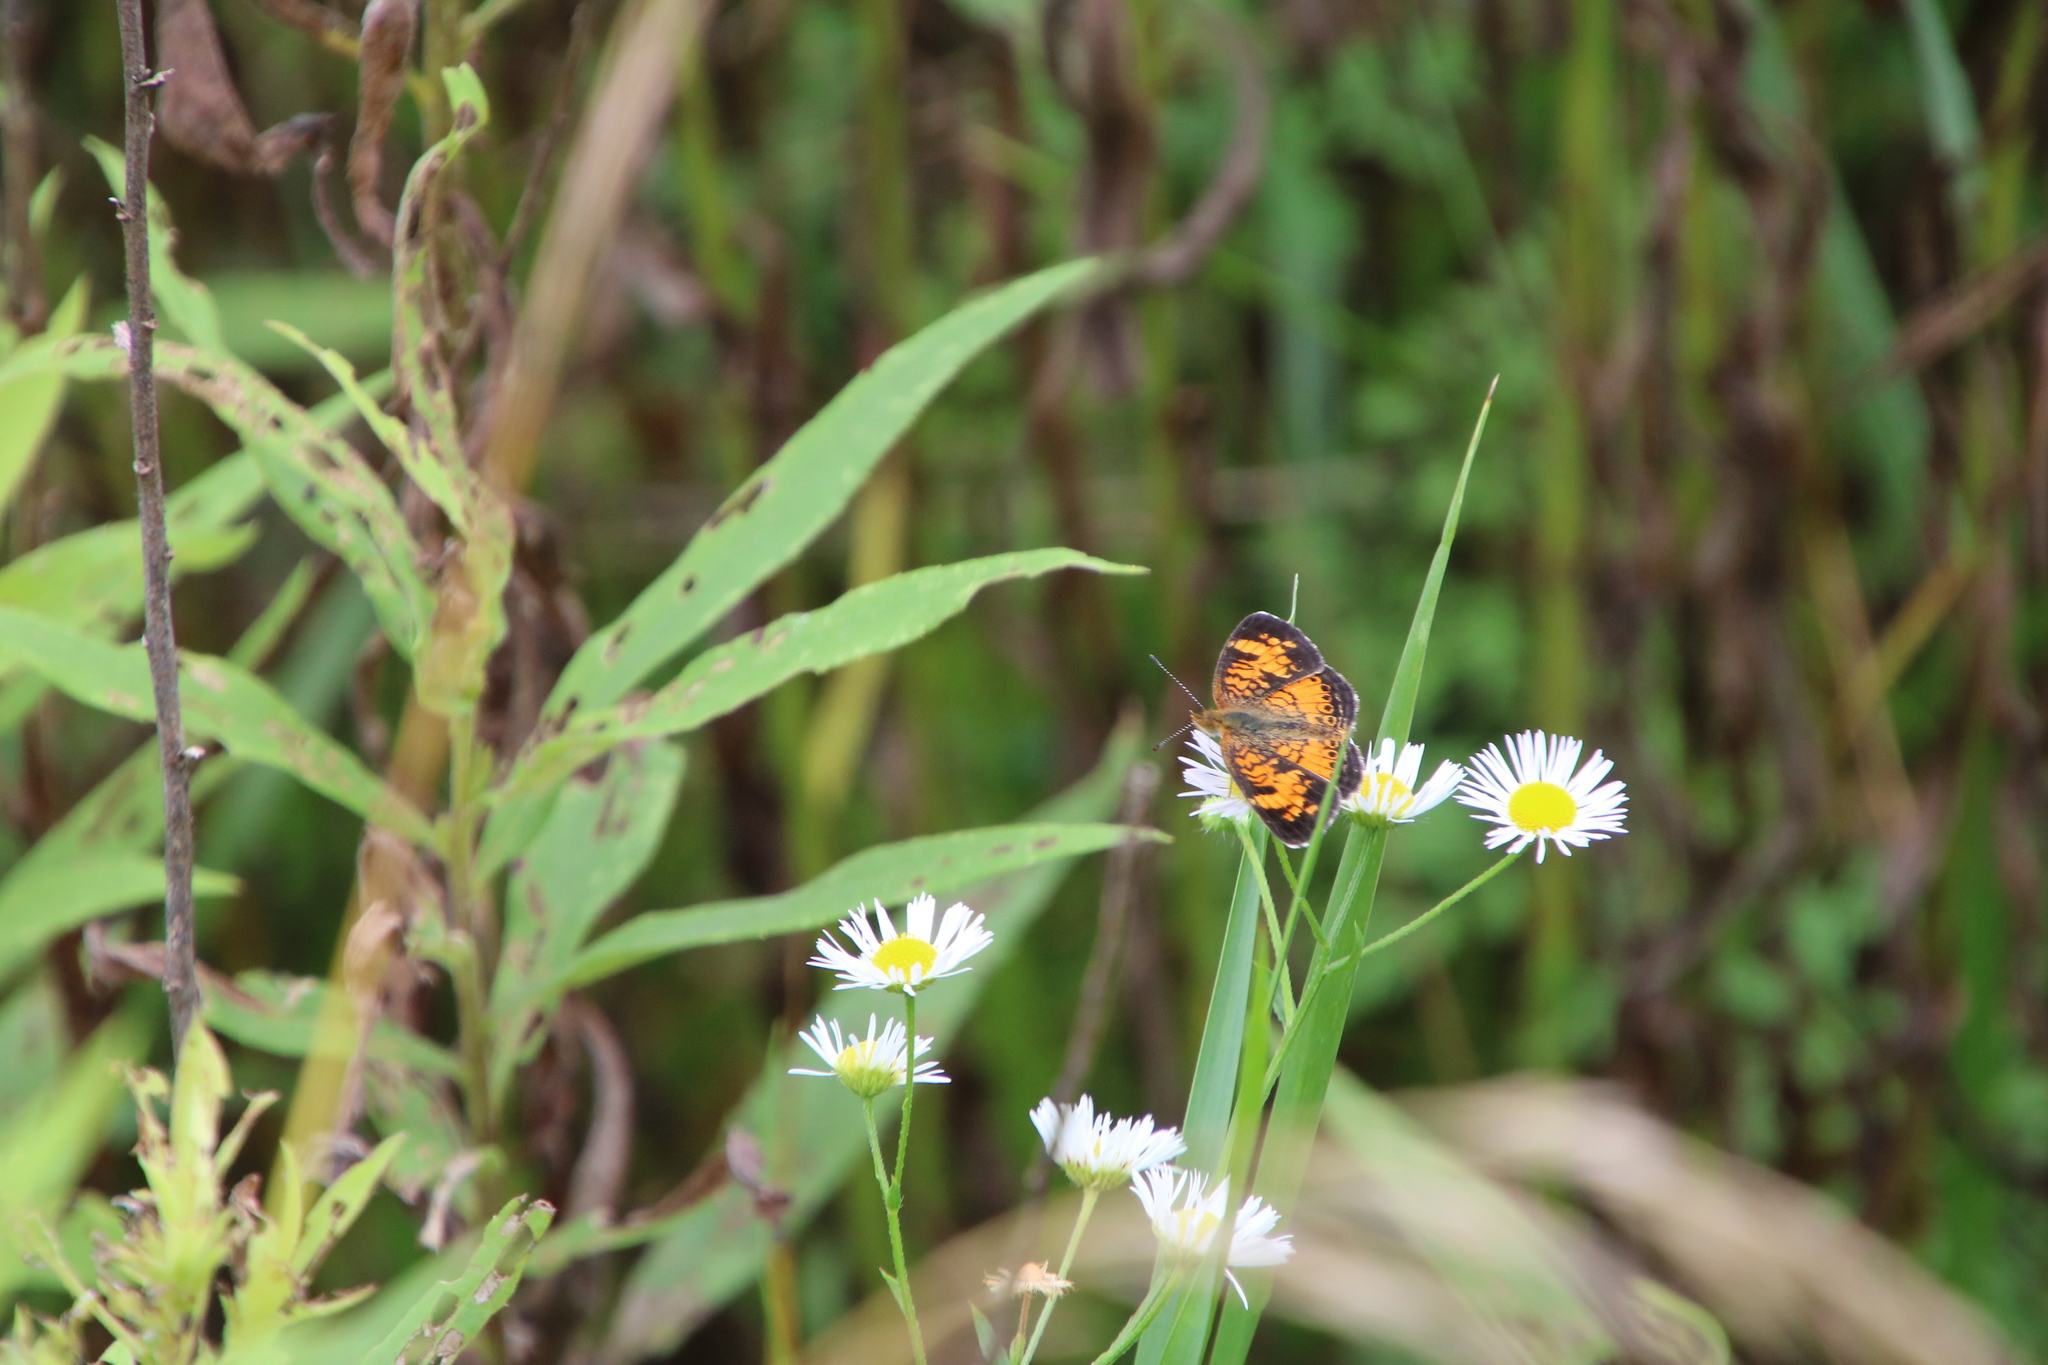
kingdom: Animalia
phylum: Arthropoda
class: Insecta
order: Lepidoptera
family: Nymphalidae
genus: Phyciodes
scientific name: Phyciodes tharos
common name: Pearl crescent
